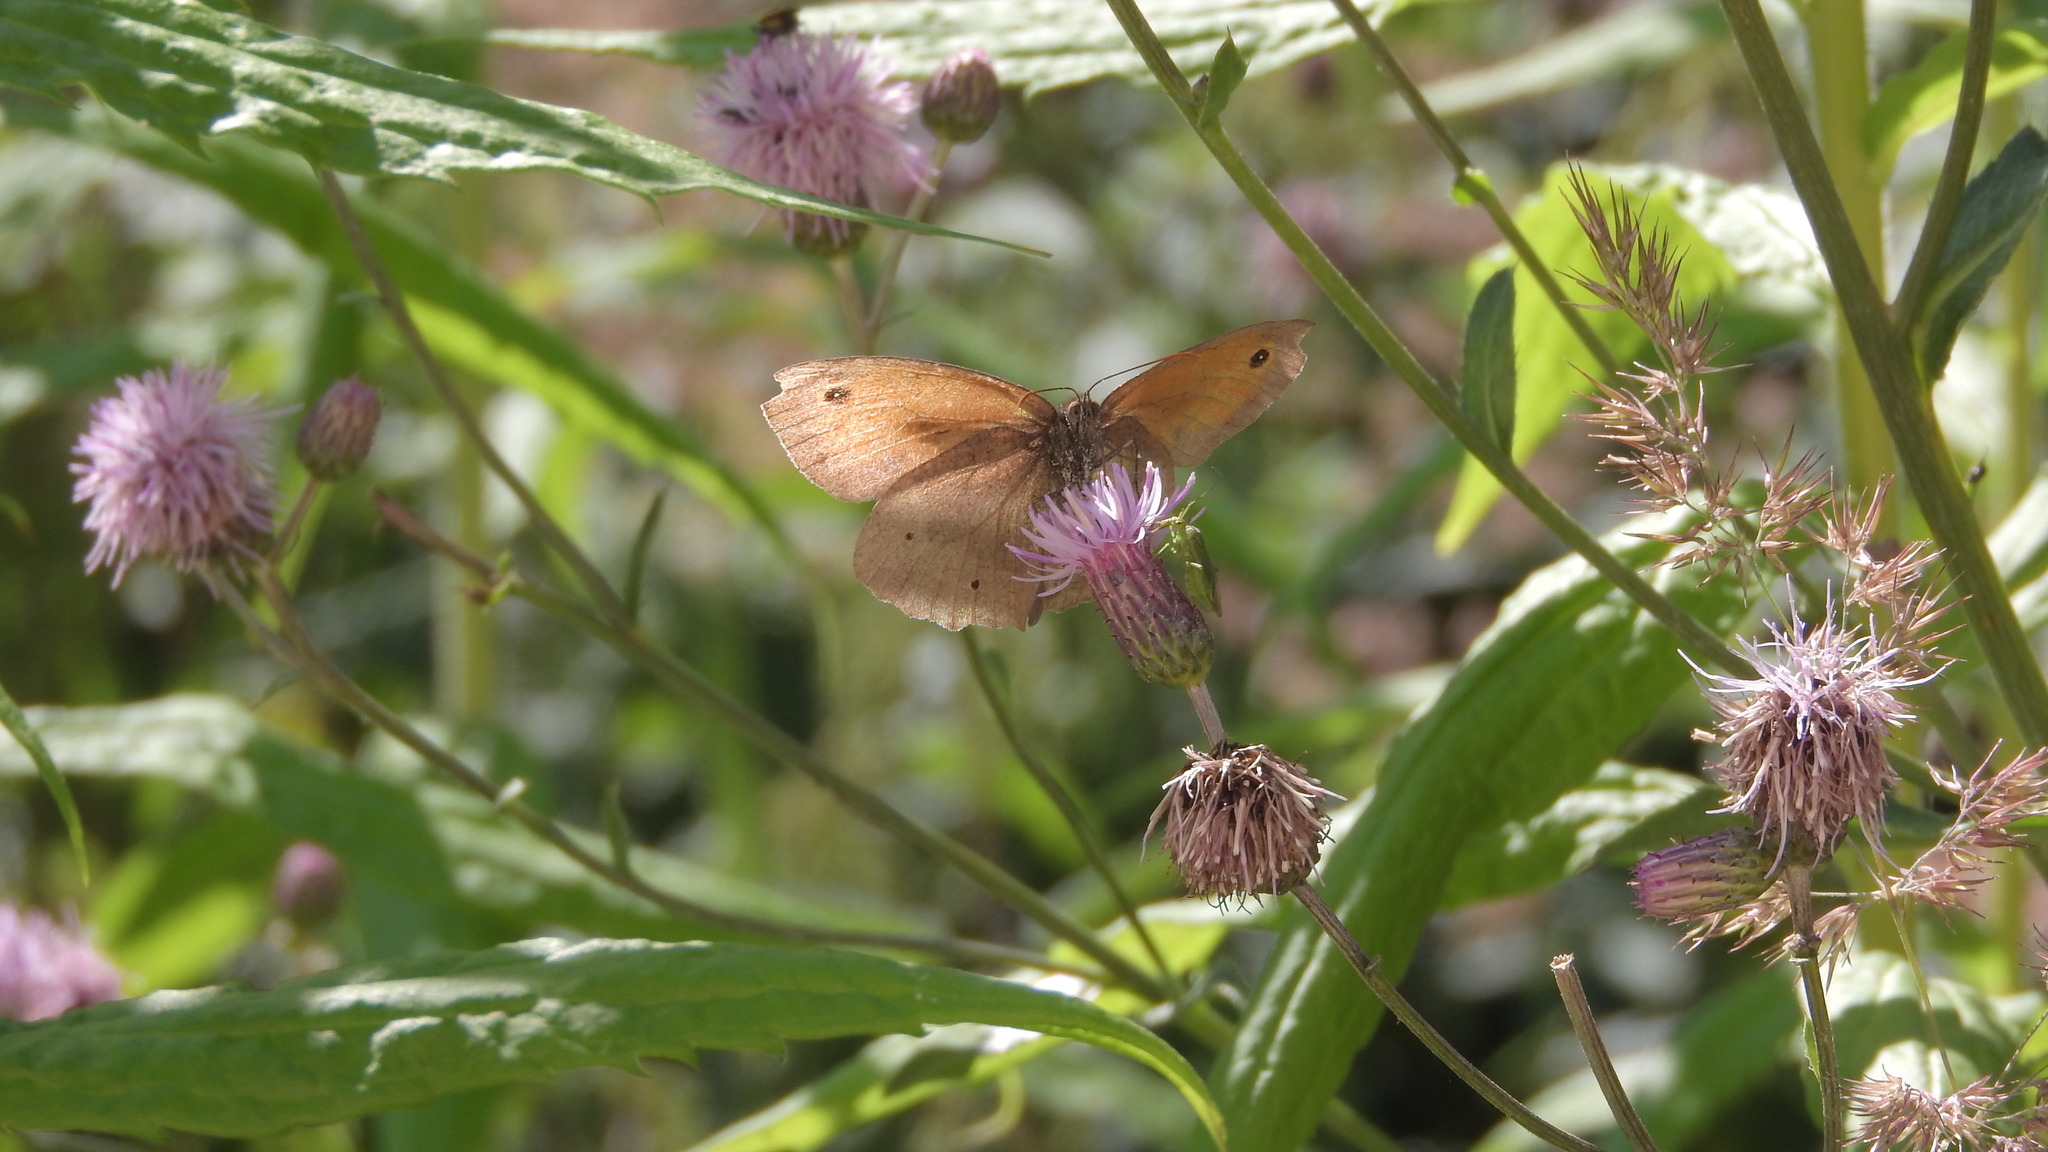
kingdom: Animalia
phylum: Arthropoda
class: Insecta
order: Lepidoptera
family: Nymphalidae
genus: Maniola
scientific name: Maniola jurtina
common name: Meadow brown
